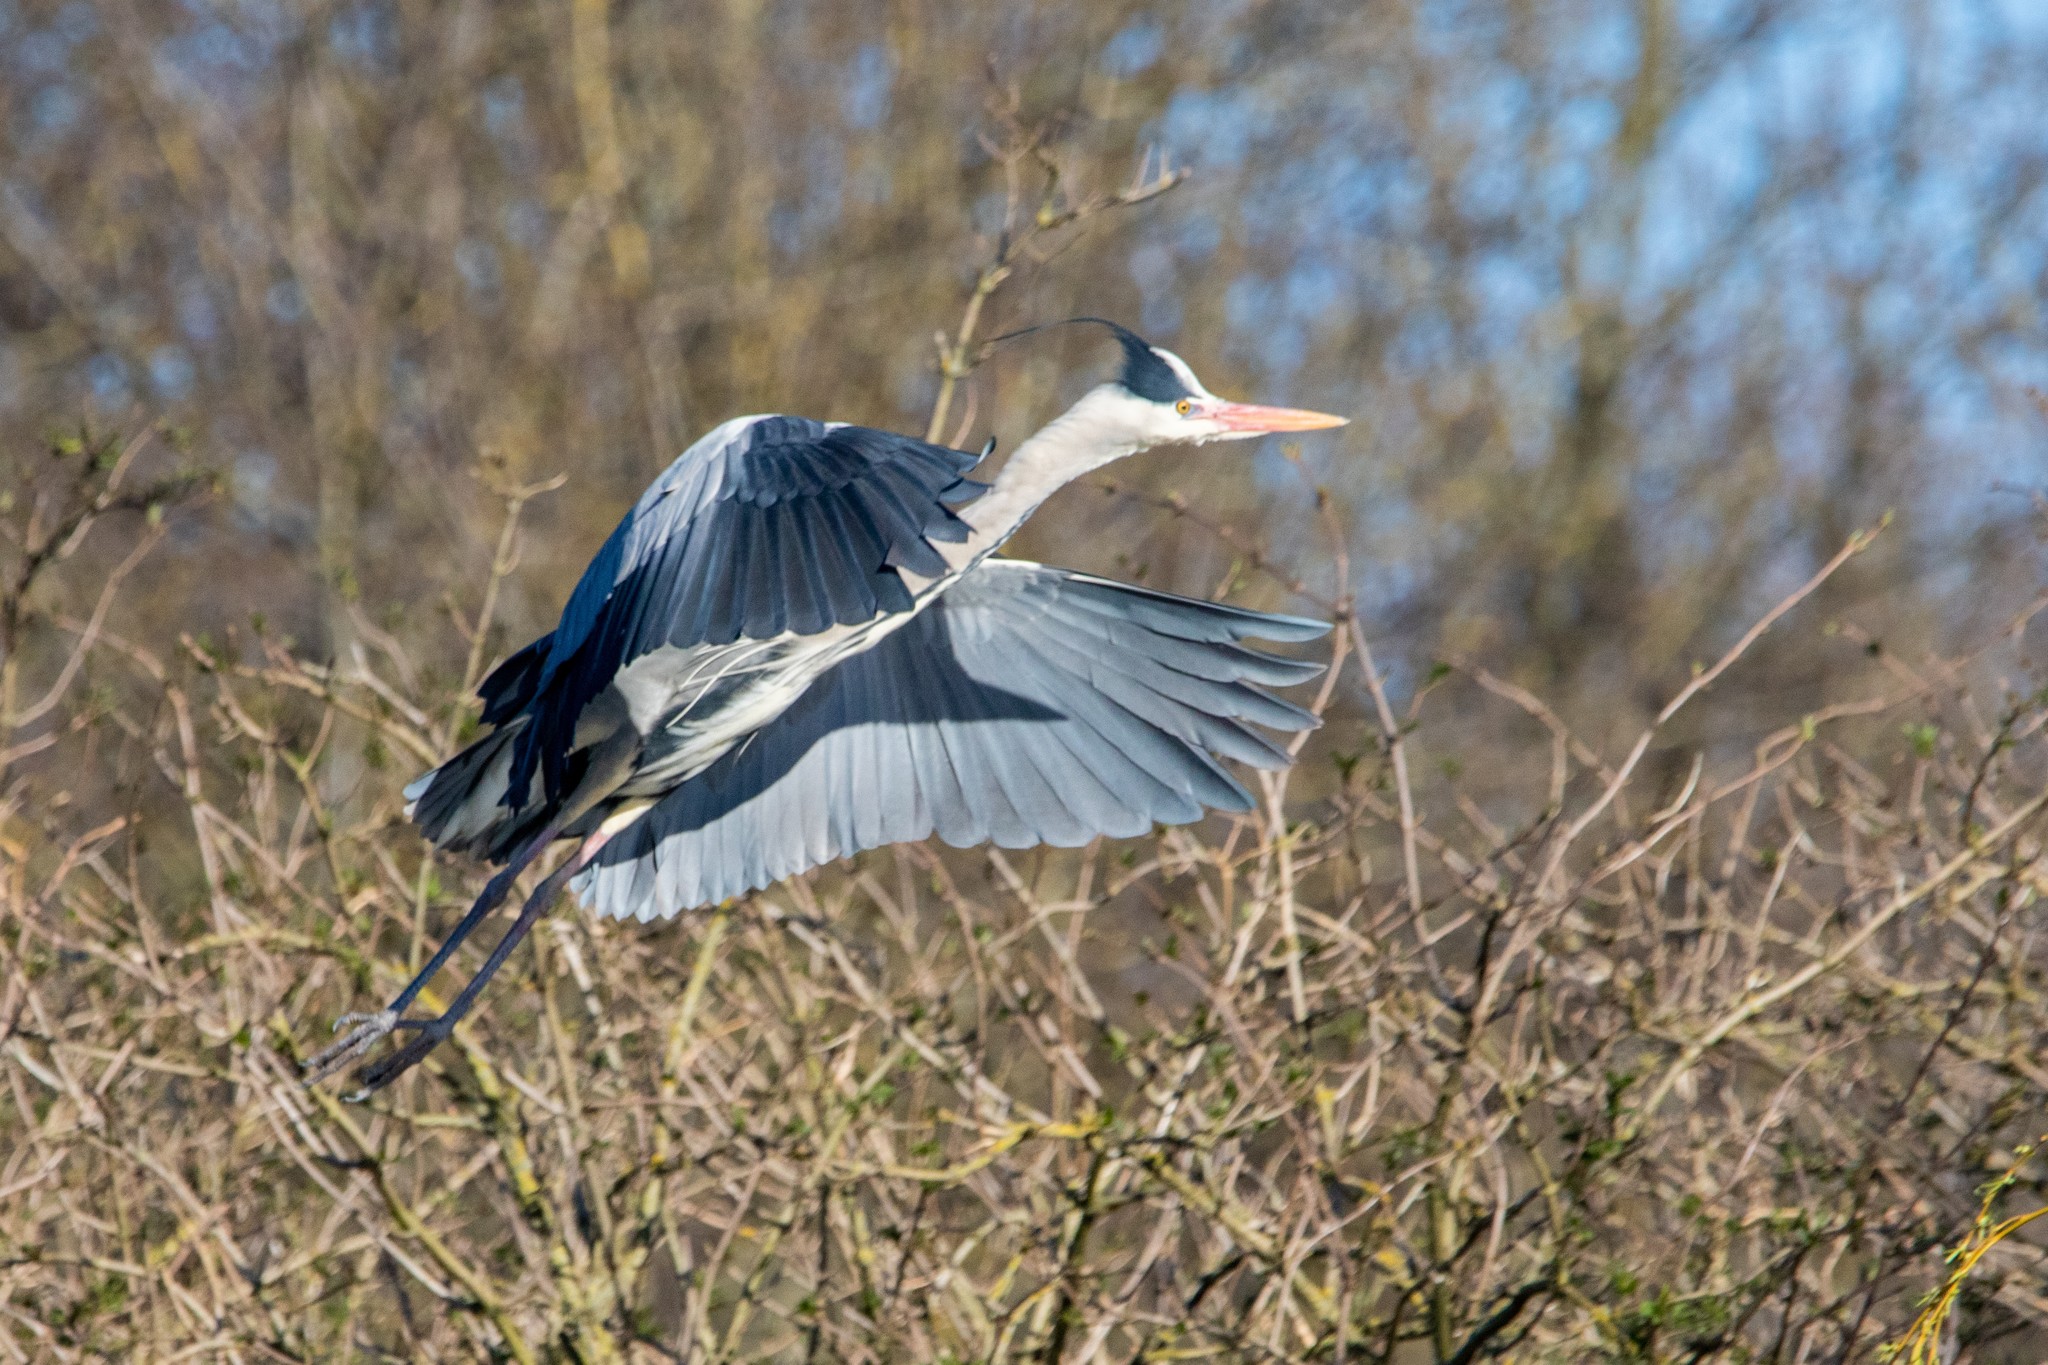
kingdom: Animalia
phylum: Chordata
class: Aves
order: Pelecaniformes
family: Ardeidae
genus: Ardea
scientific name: Ardea cinerea
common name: Grey heron
